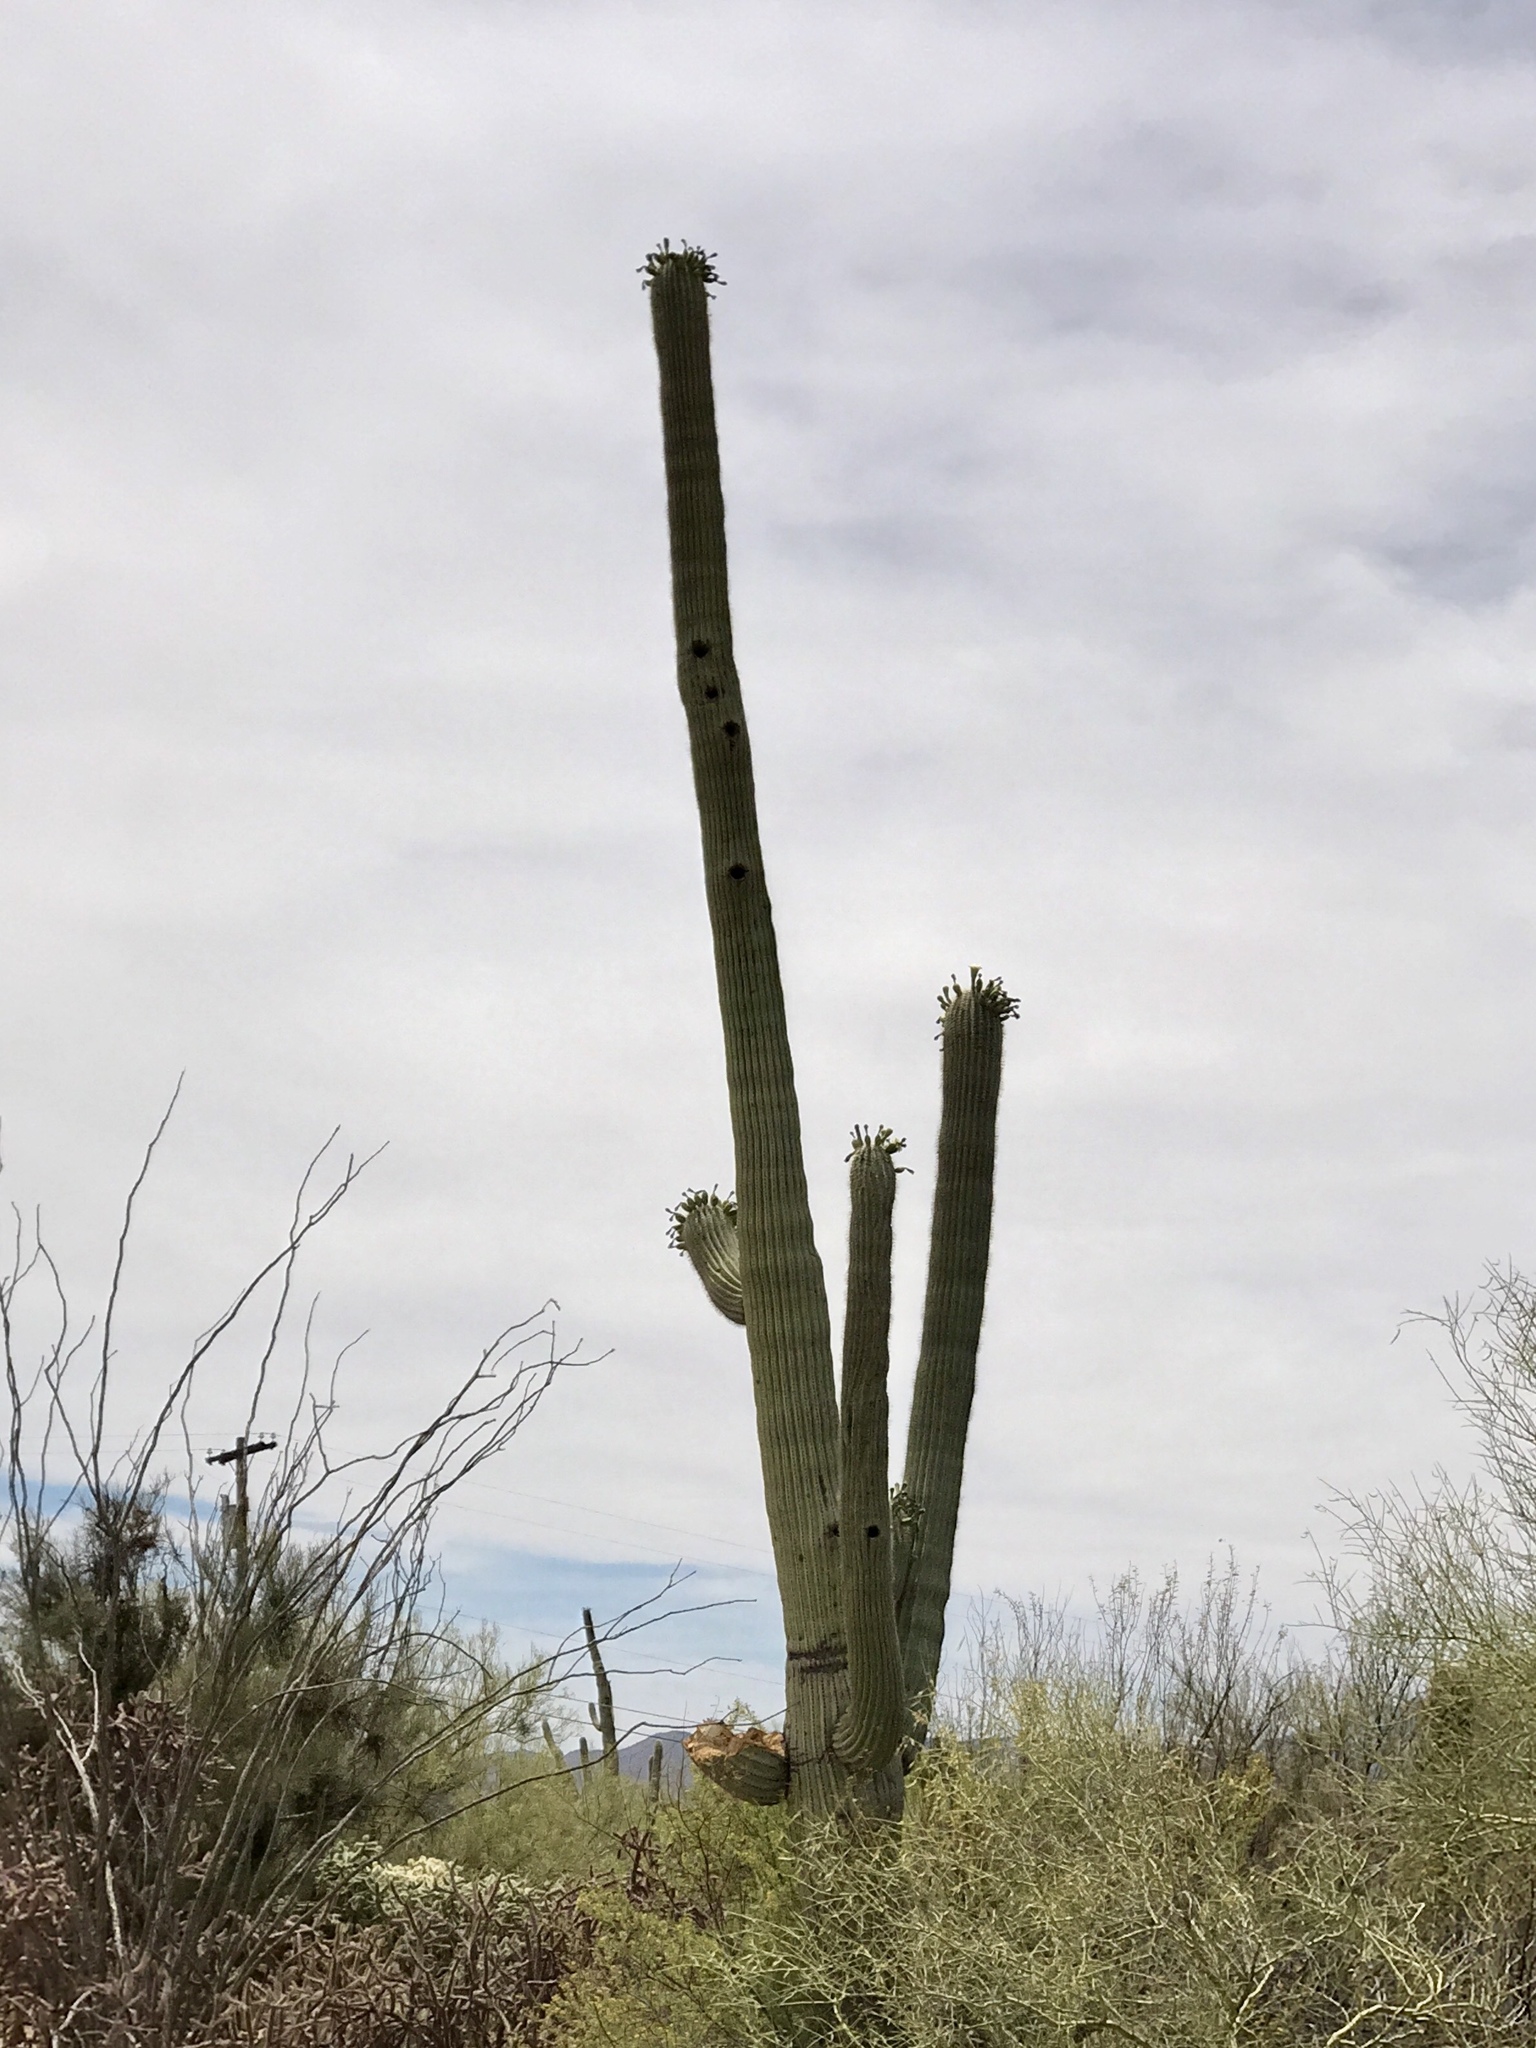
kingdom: Plantae
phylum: Tracheophyta
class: Magnoliopsida
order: Caryophyllales
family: Cactaceae
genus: Carnegiea
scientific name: Carnegiea gigantea
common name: Saguaro
